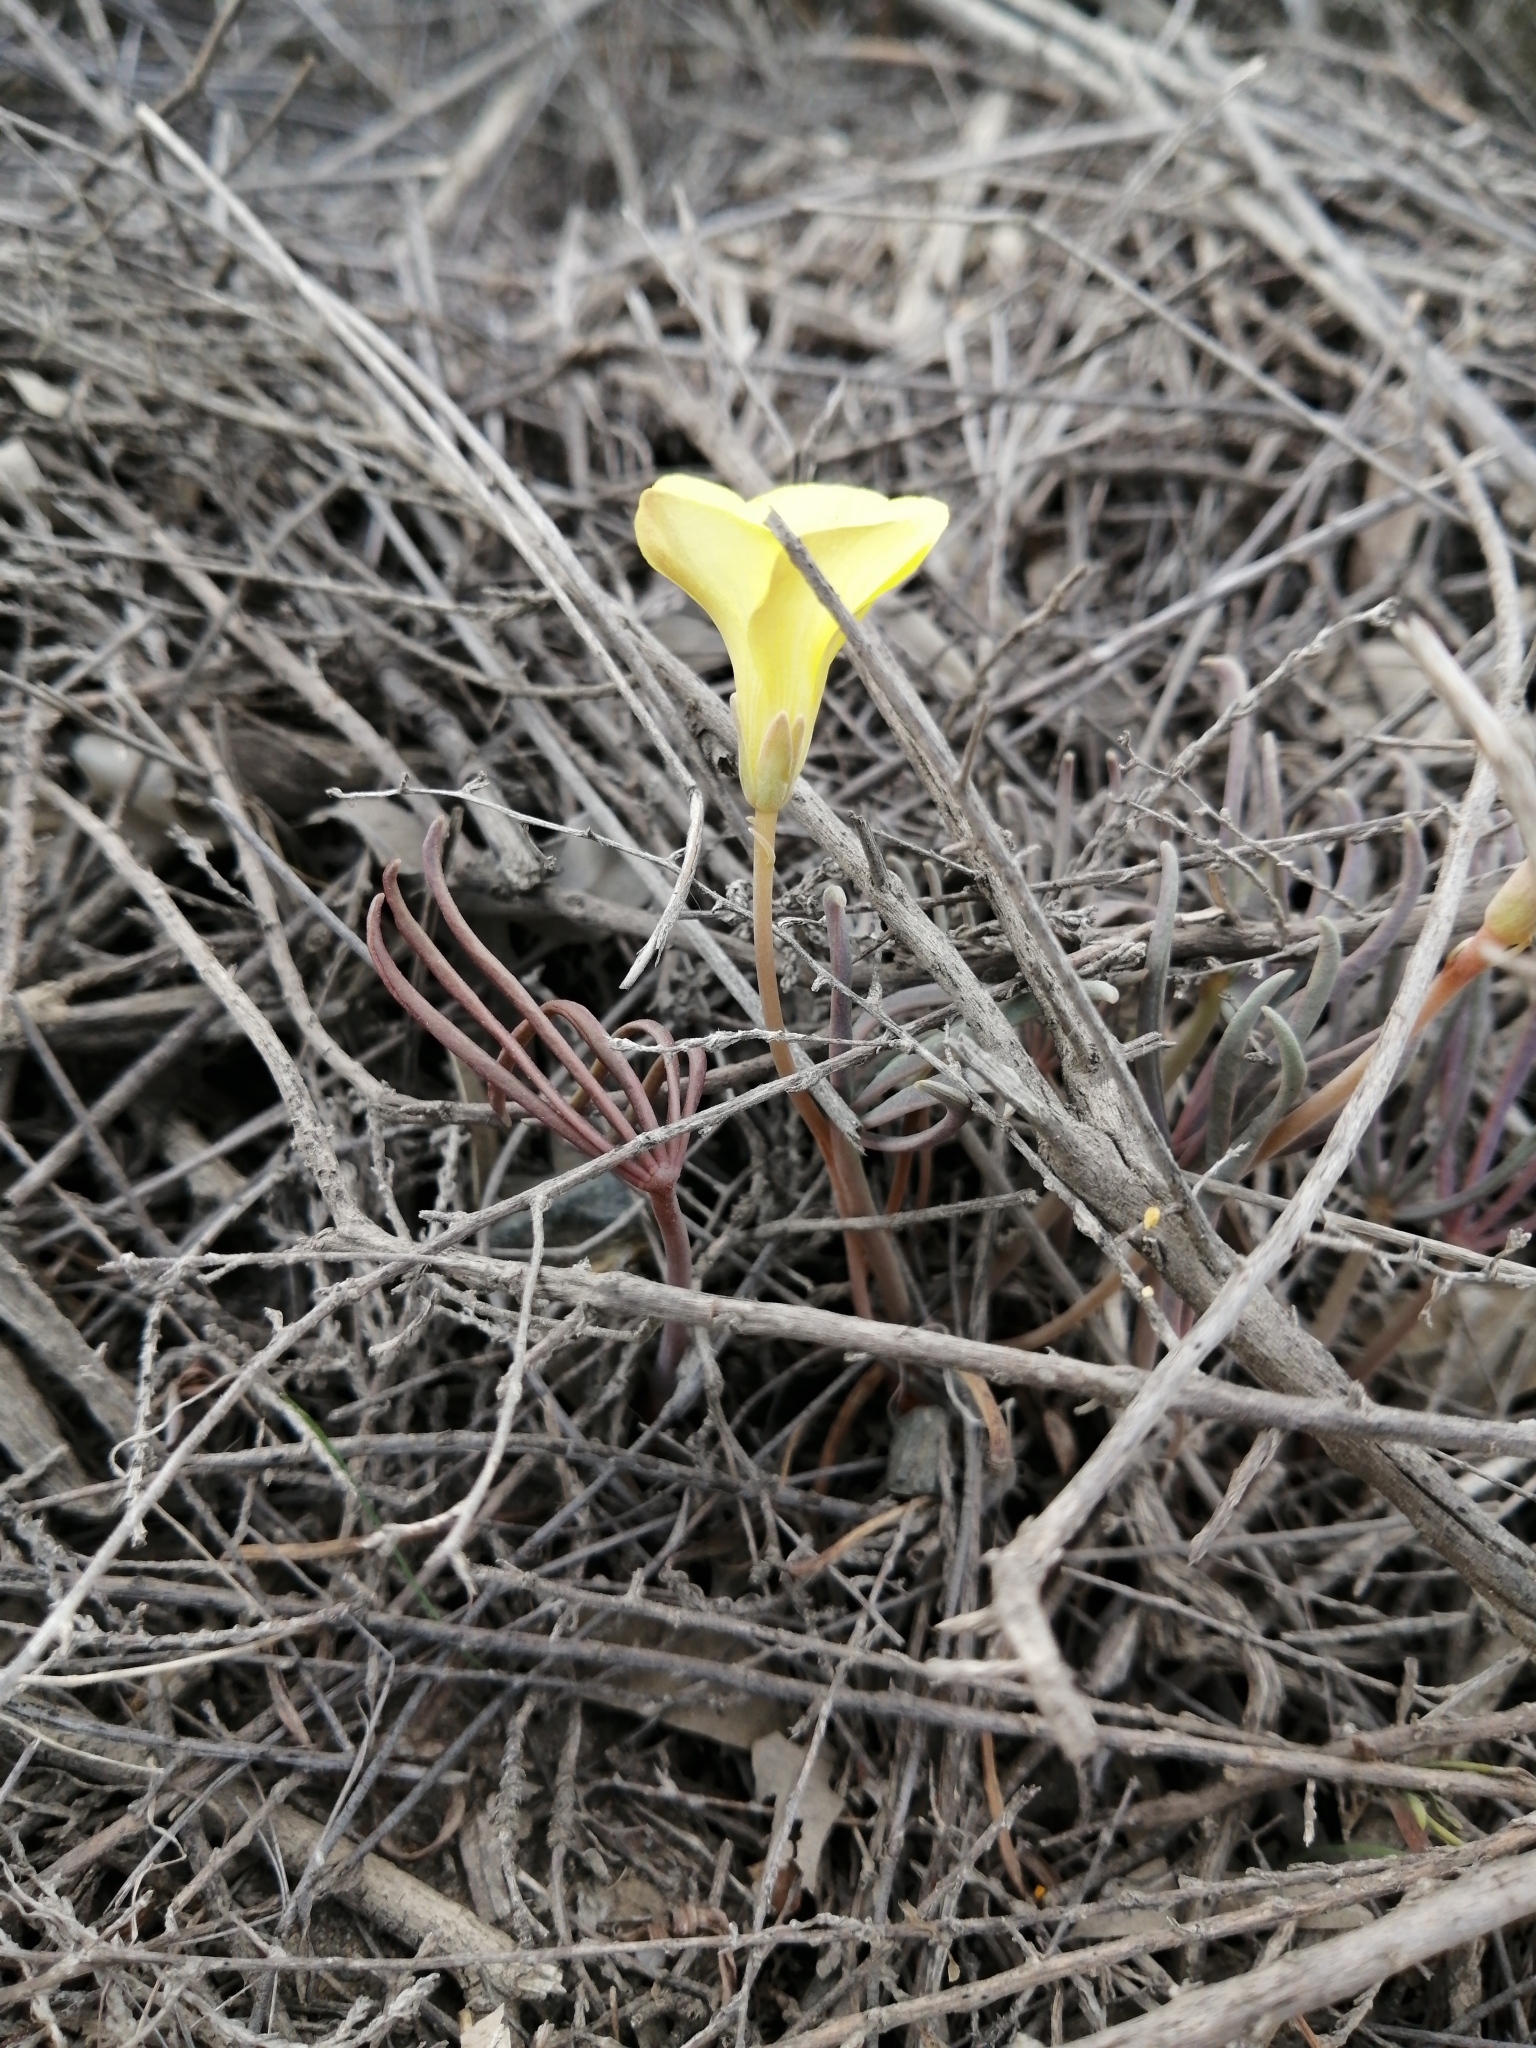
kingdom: Plantae
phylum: Tracheophyta
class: Magnoliopsida
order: Oxalidales
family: Oxalidaceae
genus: Oxalis
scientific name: Oxalis flava
